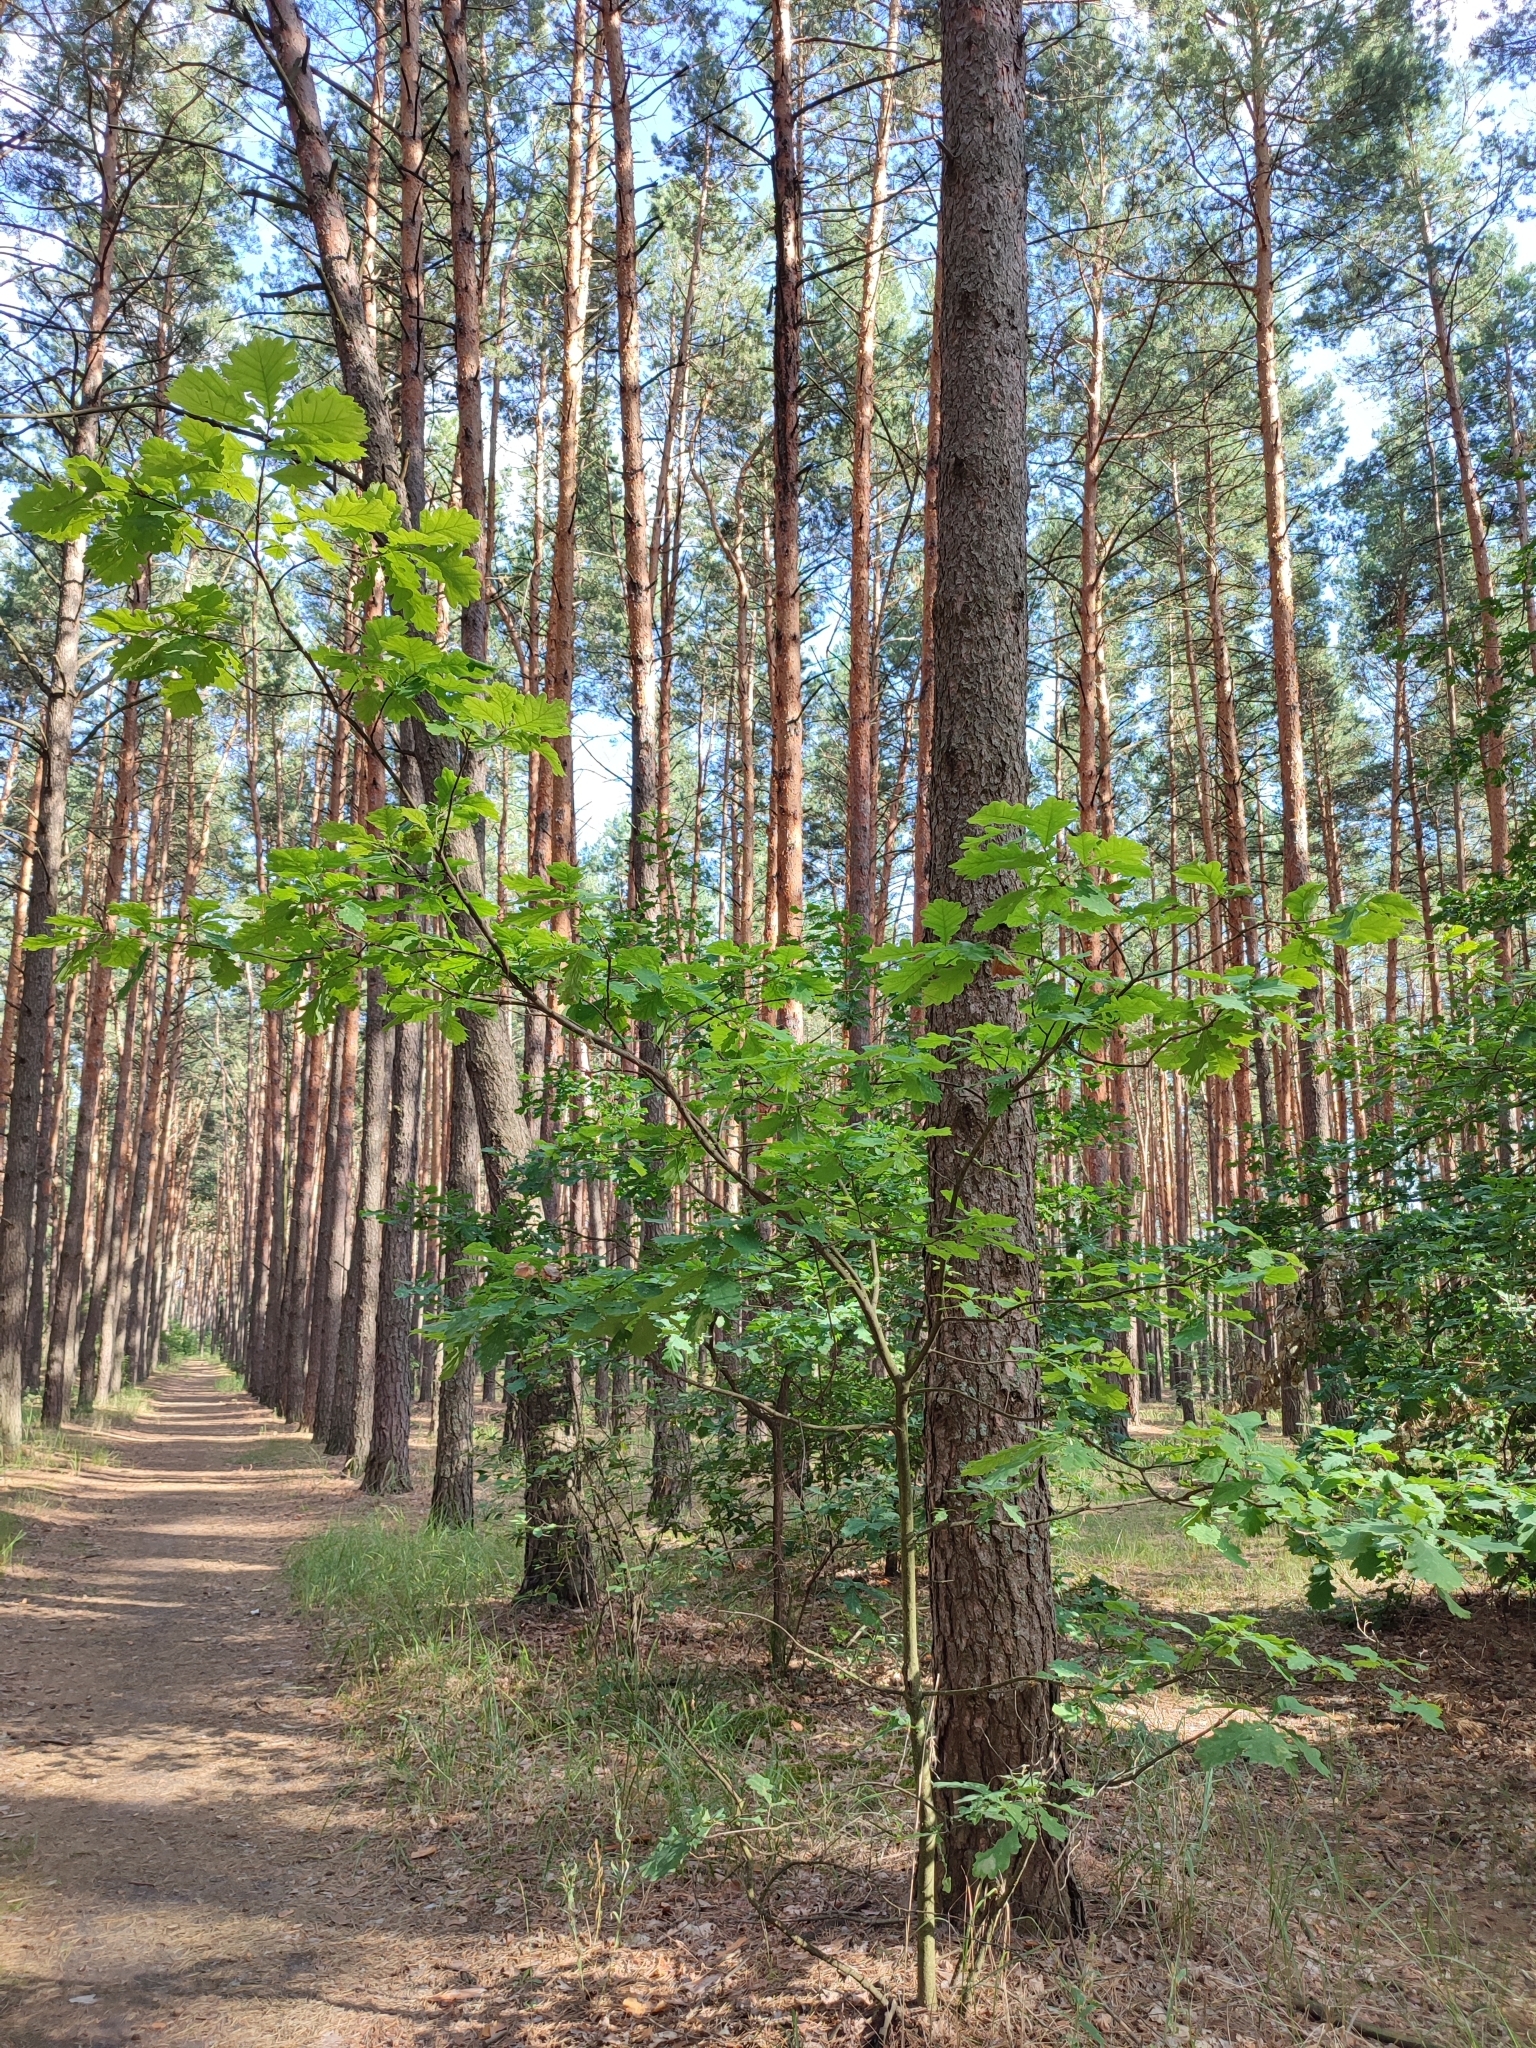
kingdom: Plantae
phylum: Tracheophyta
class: Magnoliopsida
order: Fagales
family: Fagaceae
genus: Quercus
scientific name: Quercus robur
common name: Pedunculate oak
